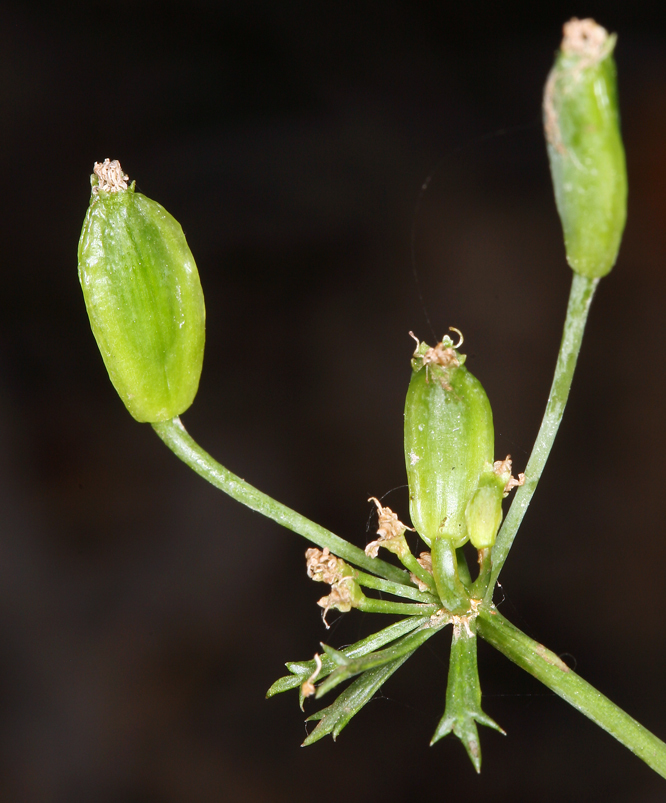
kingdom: Plantae
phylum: Tracheophyta
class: Magnoliopsida
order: Apiales
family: Apiaceae
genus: Lomatium
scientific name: Lomatium parryi
